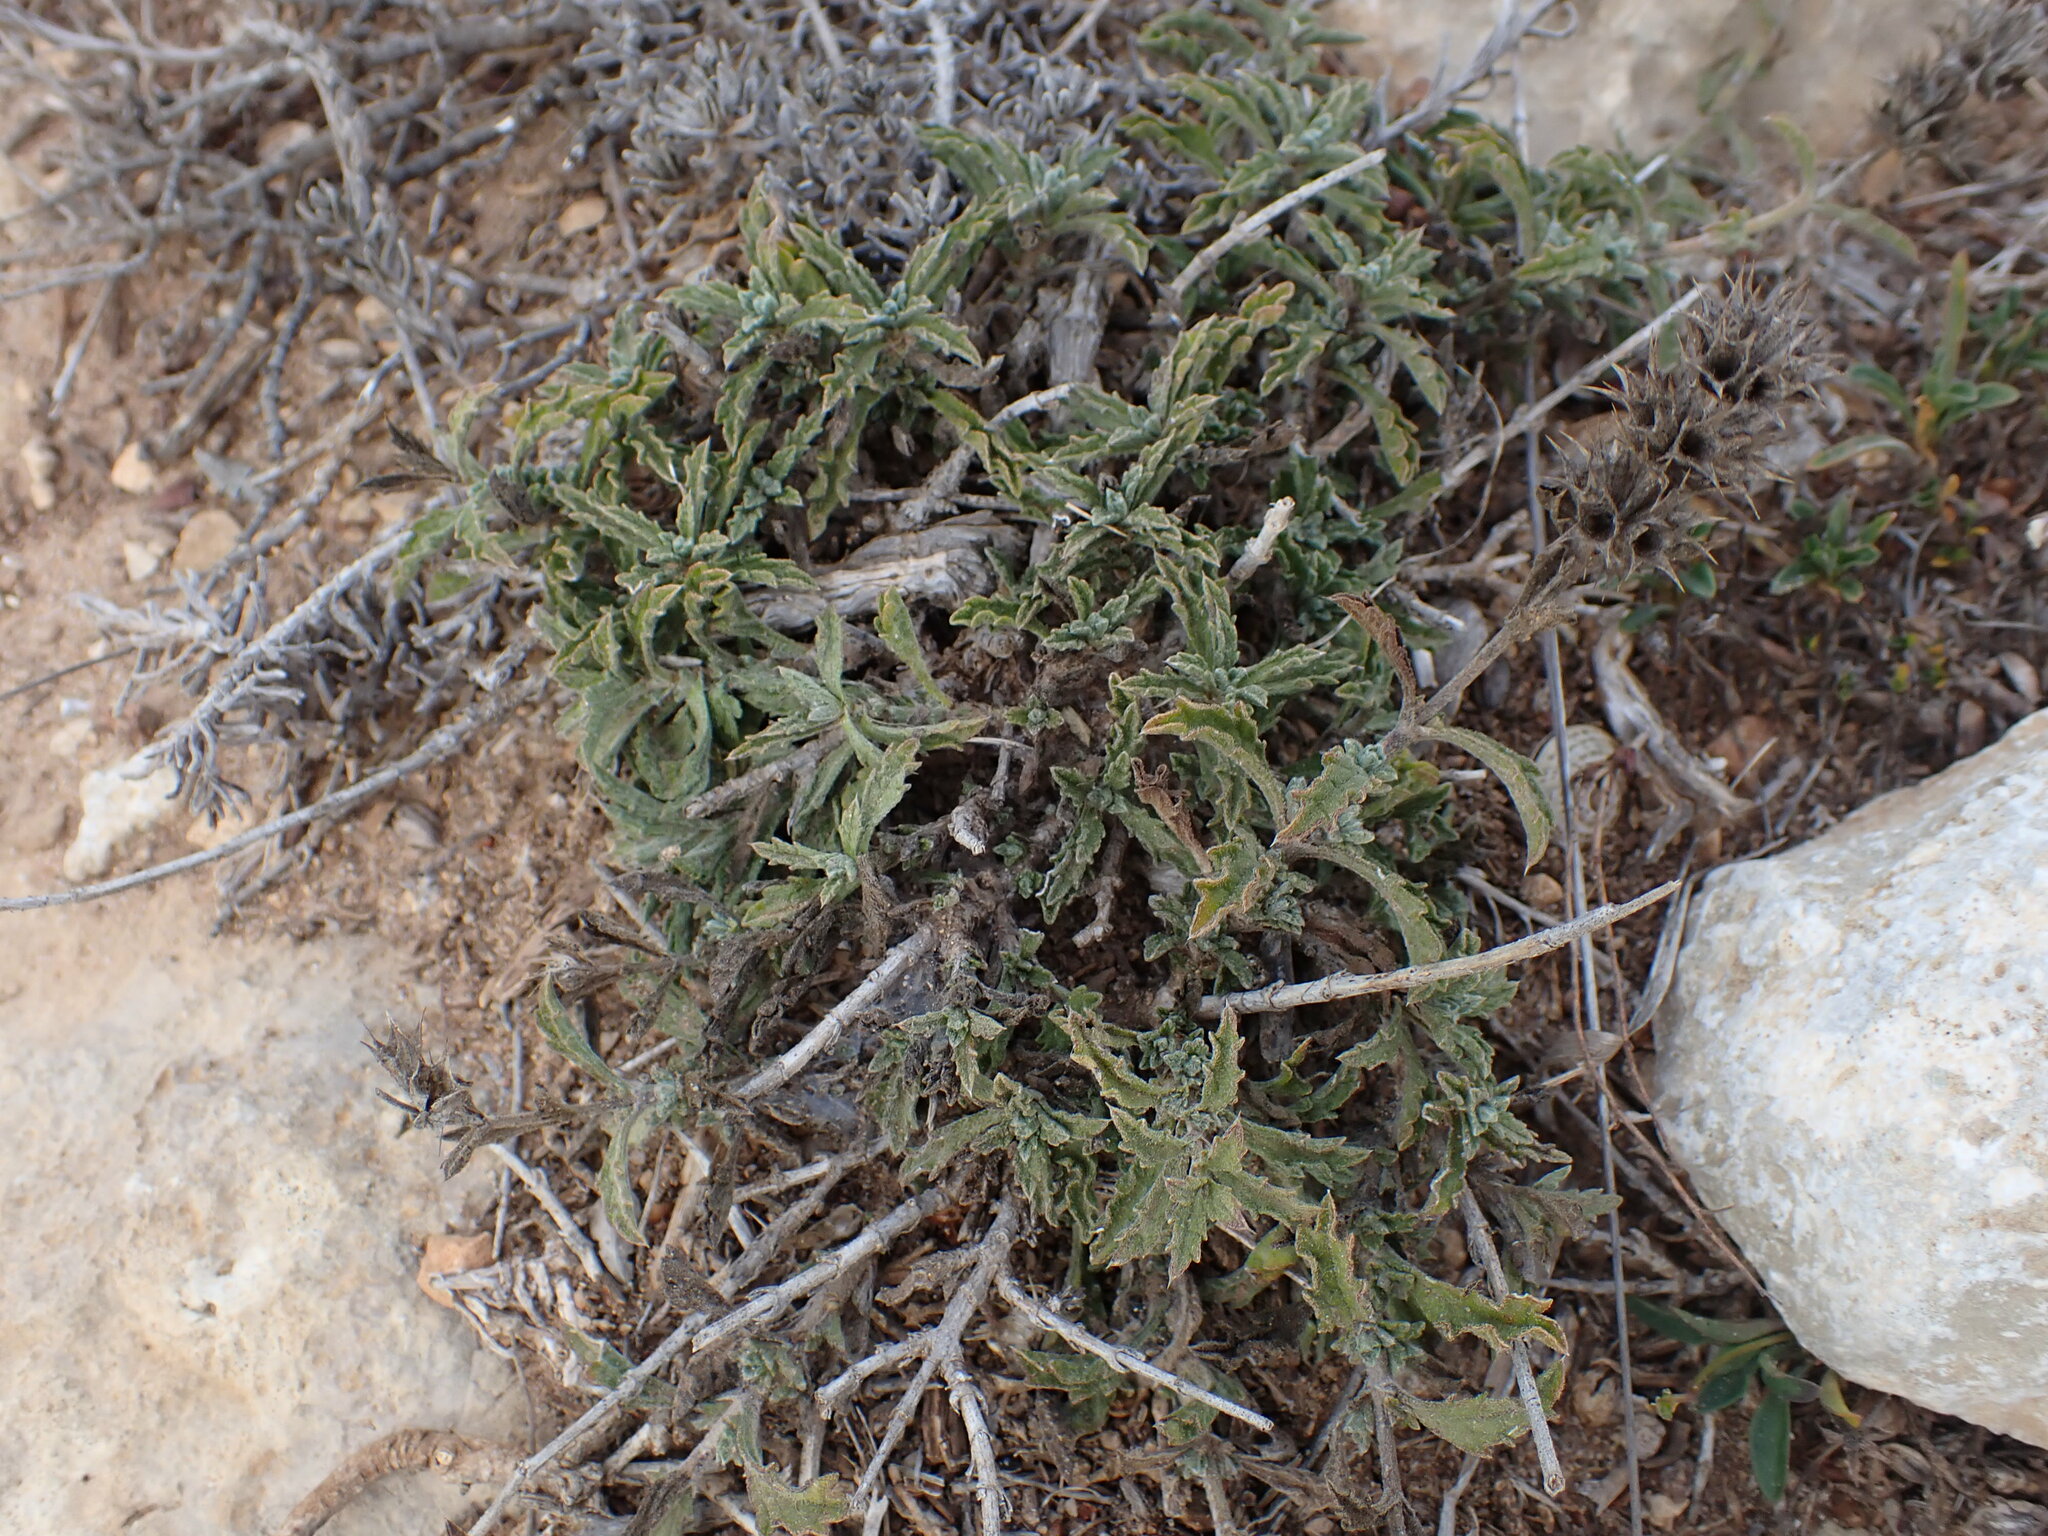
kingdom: Plantae
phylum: Tracheophyta
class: Magnoliopsida
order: Lamiales
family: Lamiaceae
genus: Sideritis
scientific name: Sideritis fruticulosa
